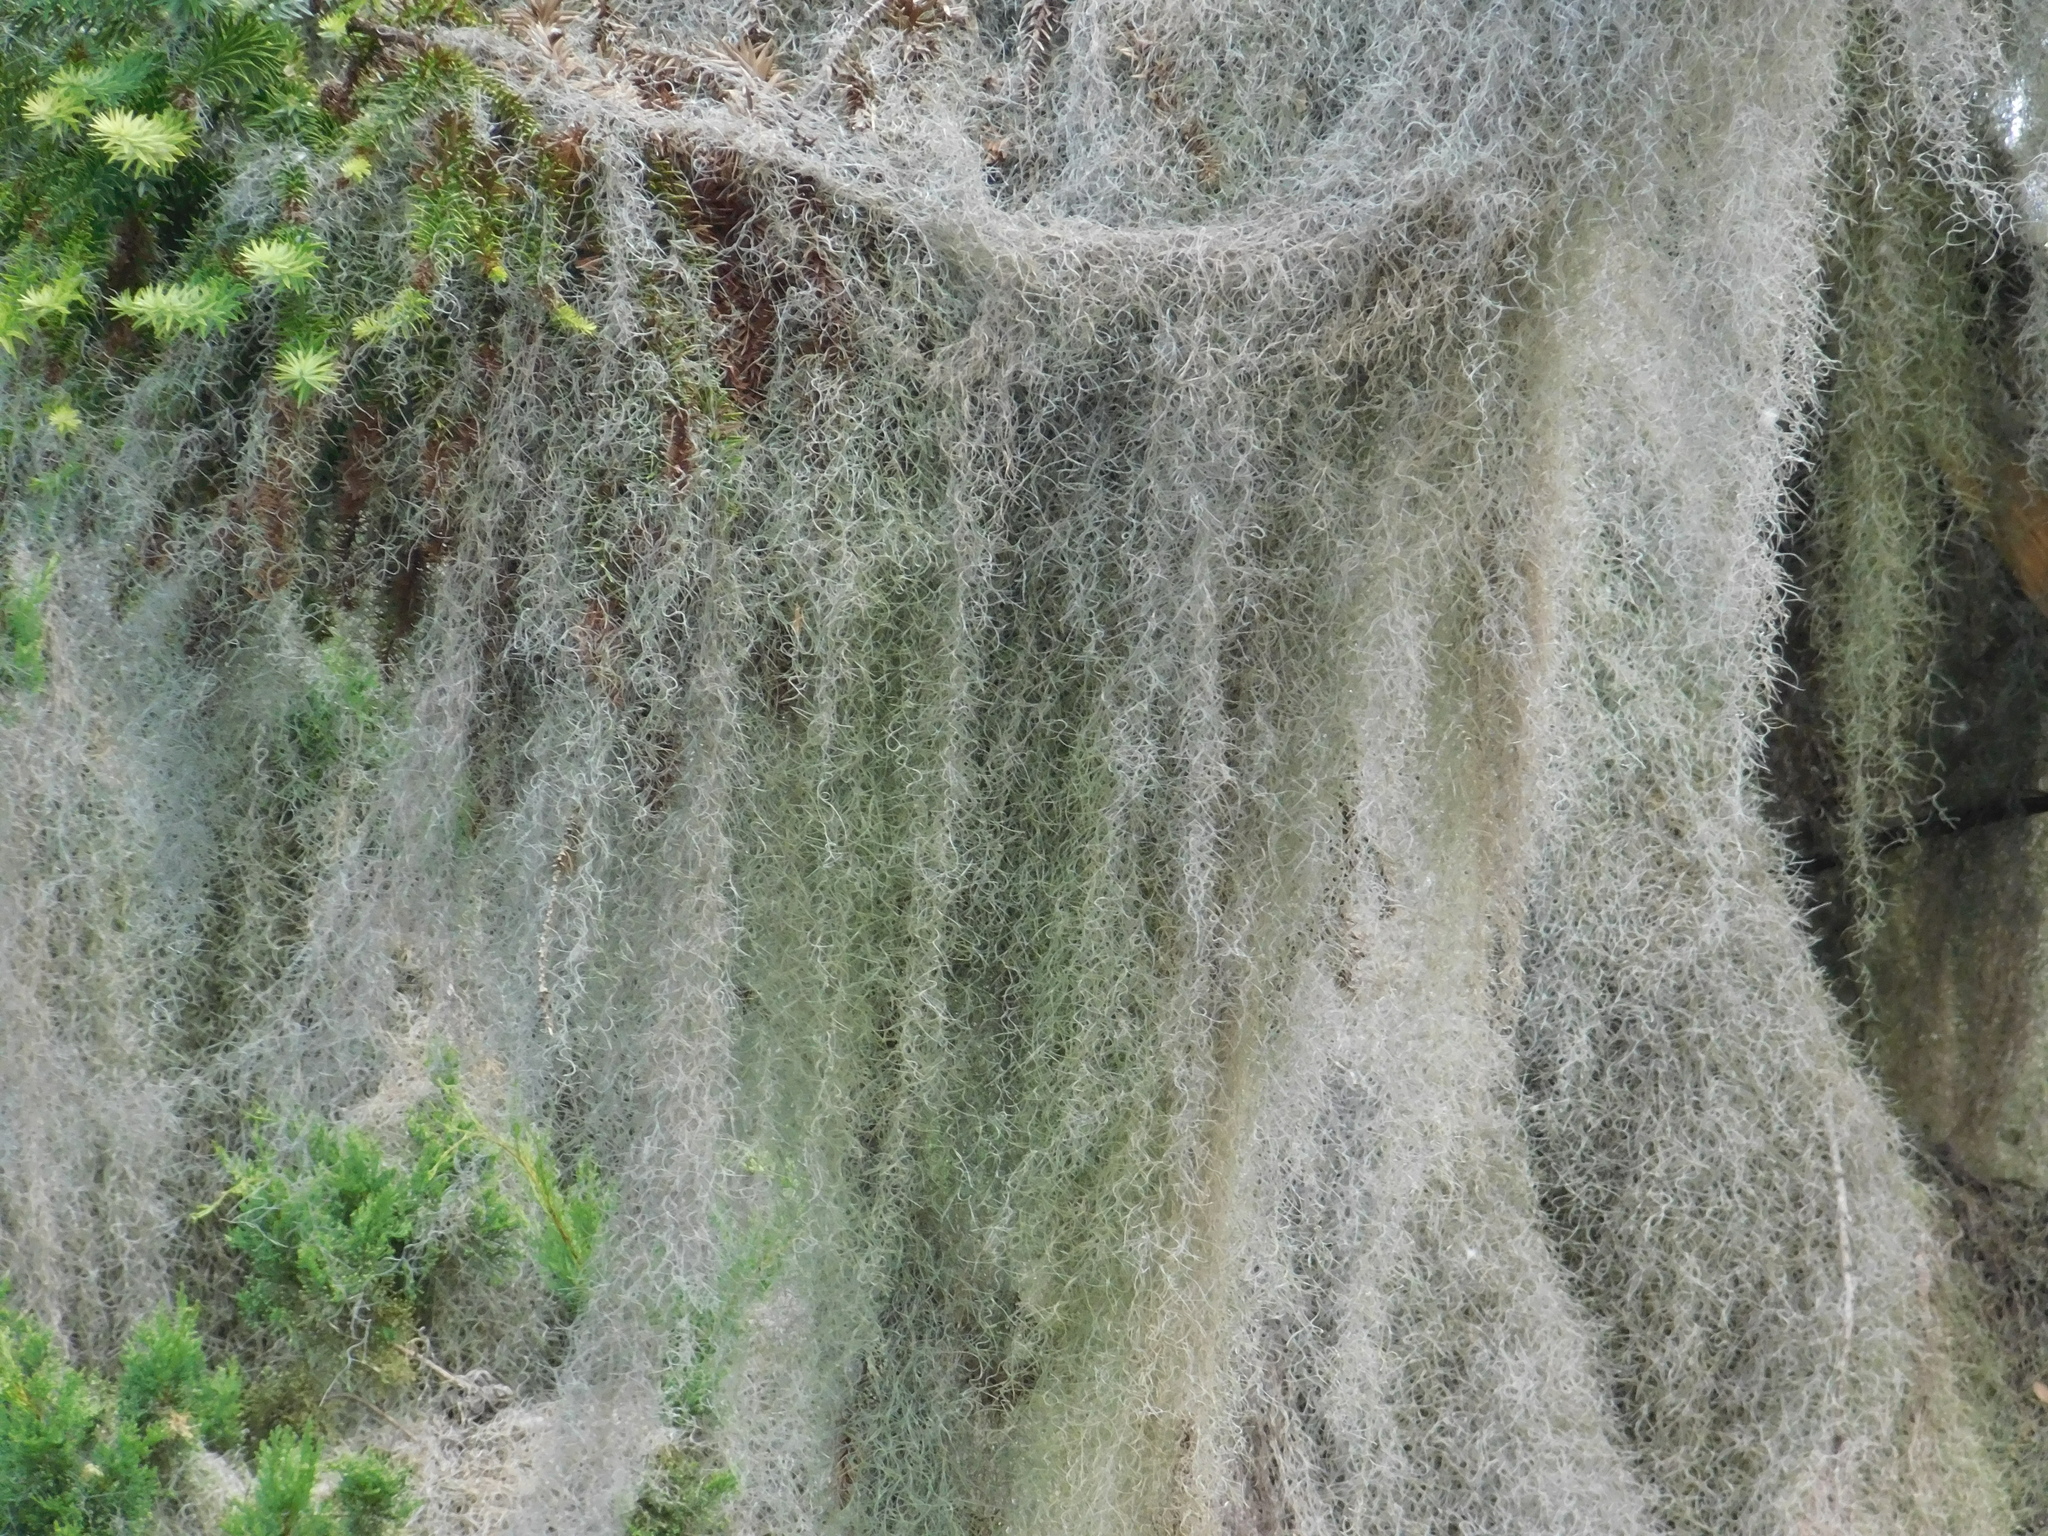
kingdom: Plantae
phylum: Tracheophyta
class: Liliopsida
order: Poales
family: Bromeliaceae
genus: Tillandsia
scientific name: Tillandsia usneoides
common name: Spanish moss
